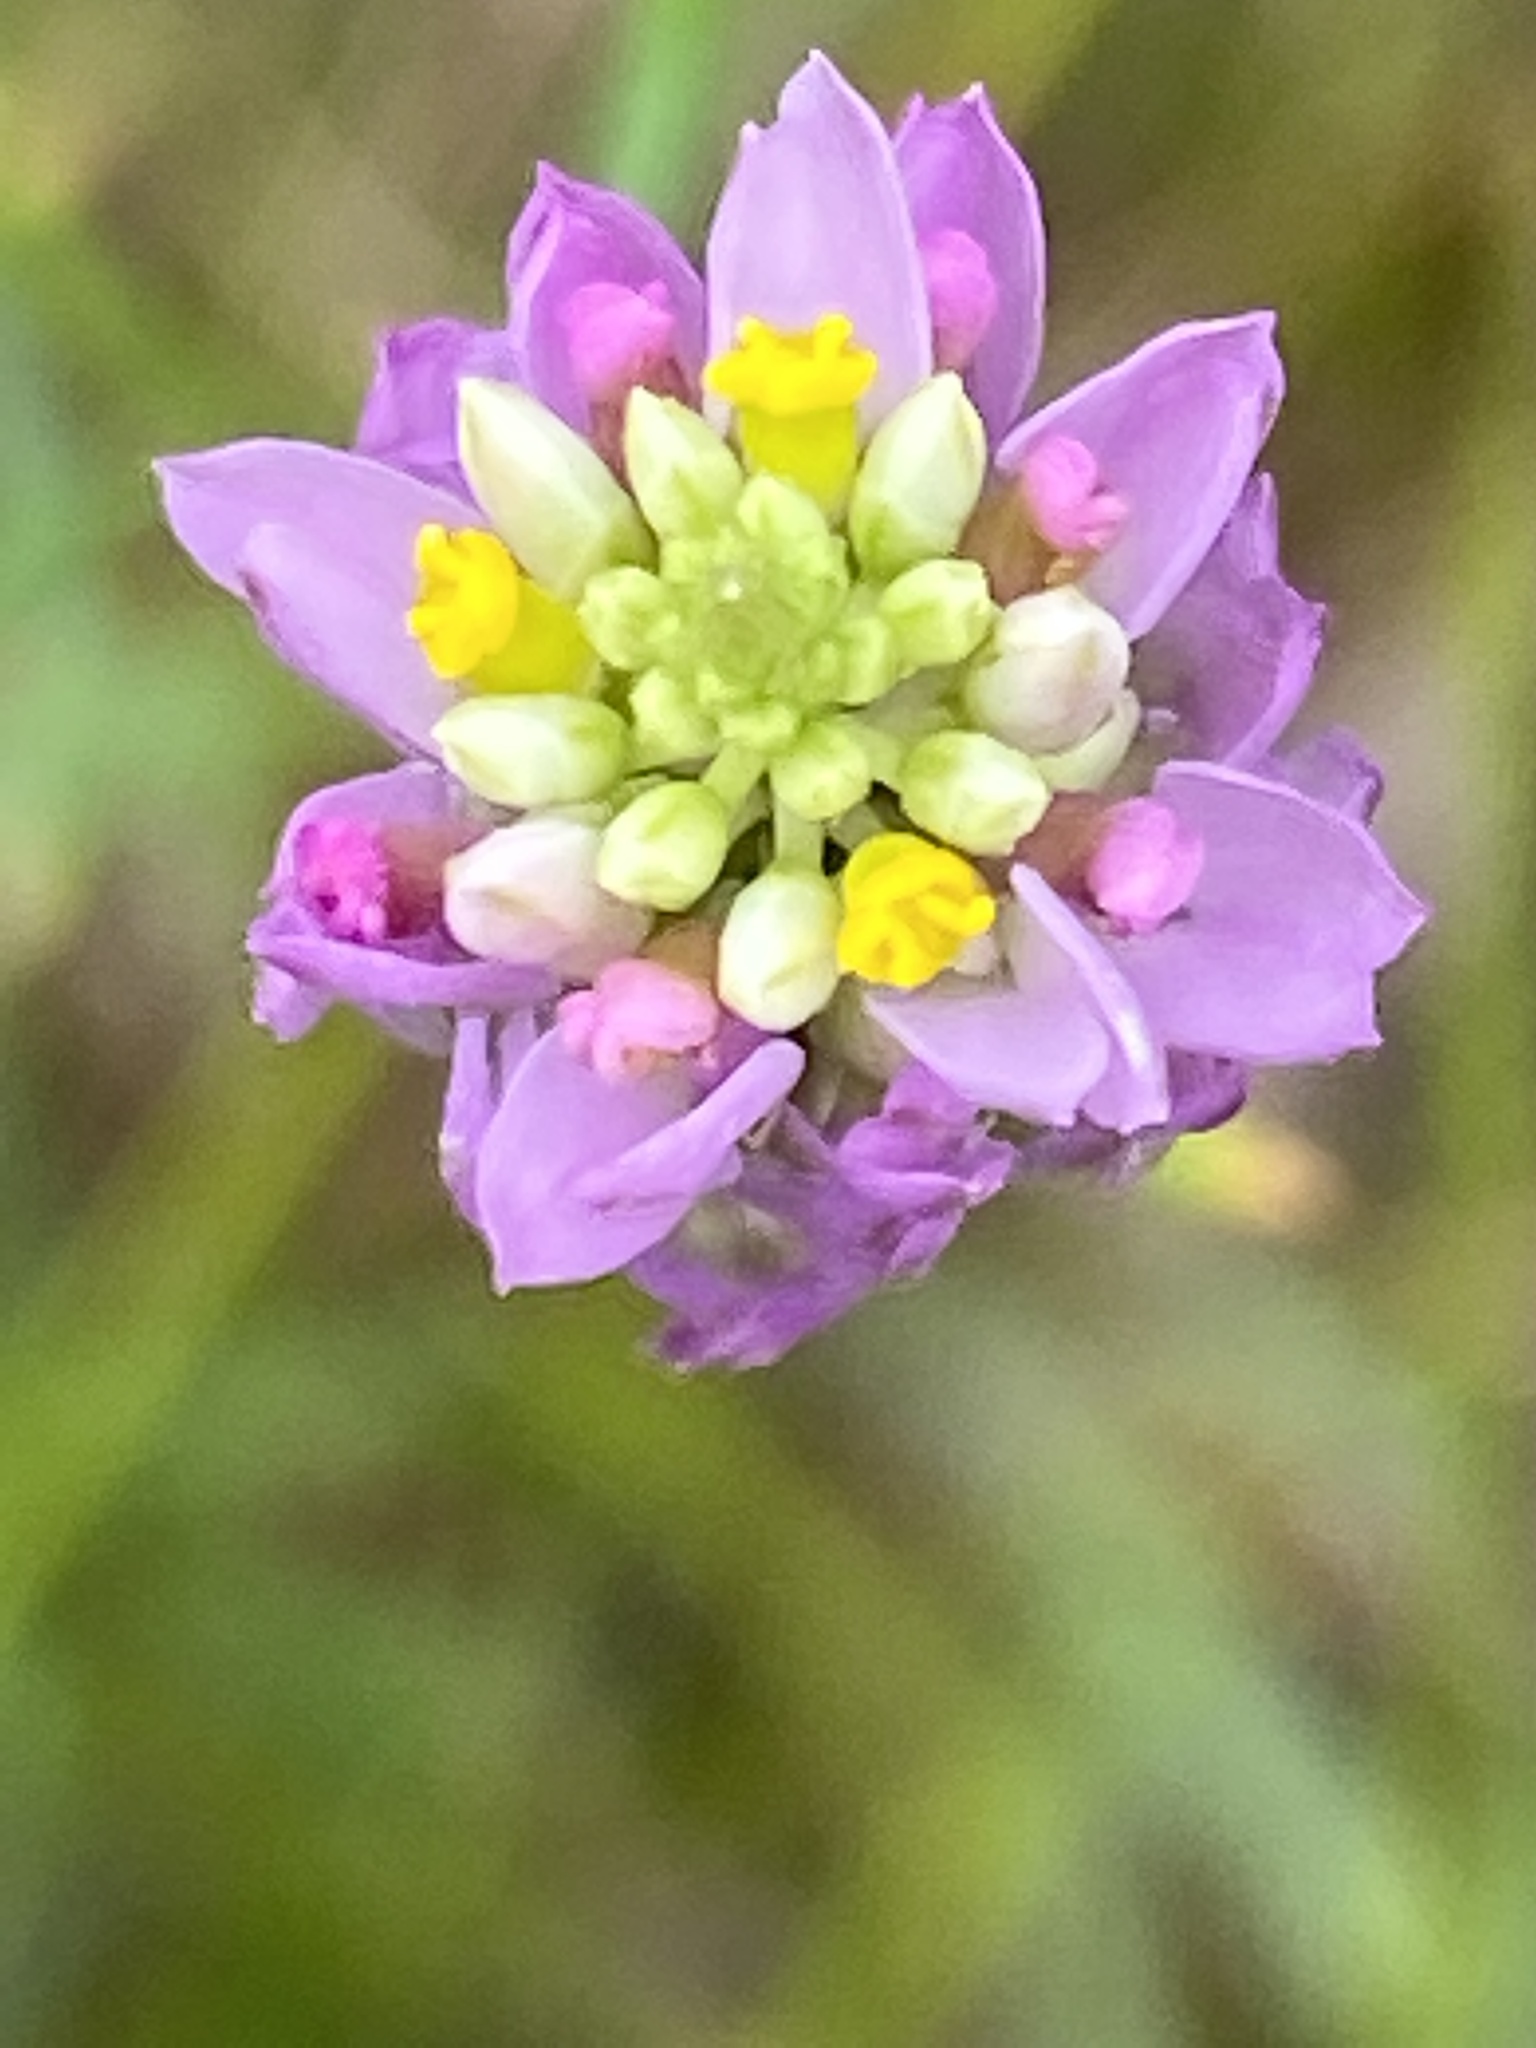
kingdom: Plantae
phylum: Tracheophyta
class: Magnoliopsida
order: Fabales
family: Polygalaceae
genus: Polygala
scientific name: Polygala curtissii
